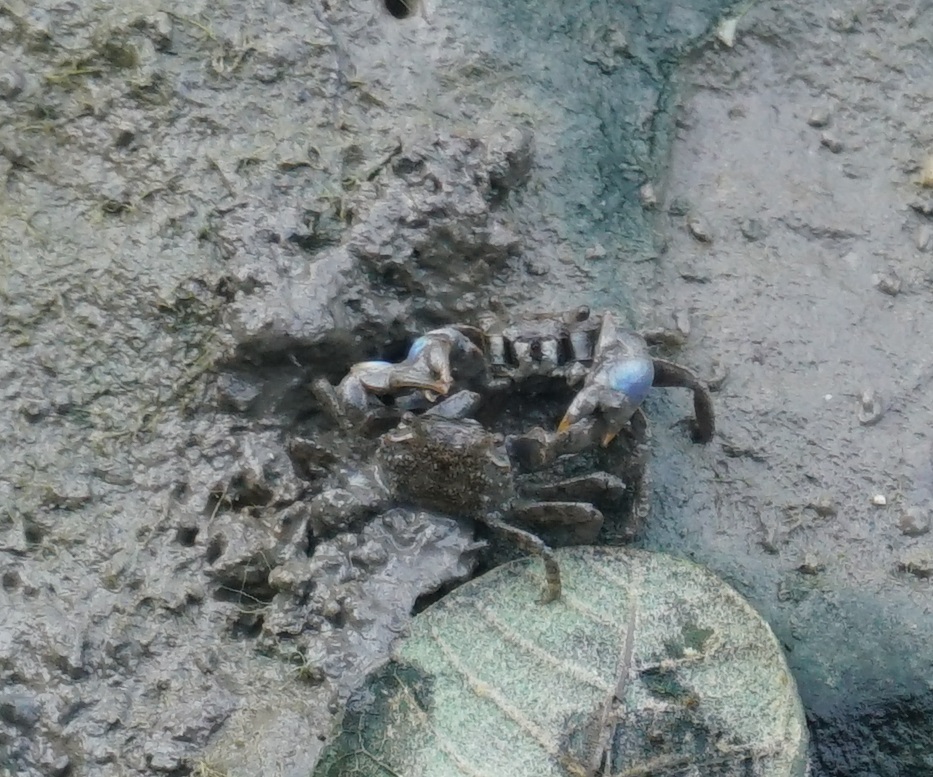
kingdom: Animalia
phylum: Arthropoda
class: Malacostraca
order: Decapoda
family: Macrophthalmidae
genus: Australoplax
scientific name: Australoplax tridentata
